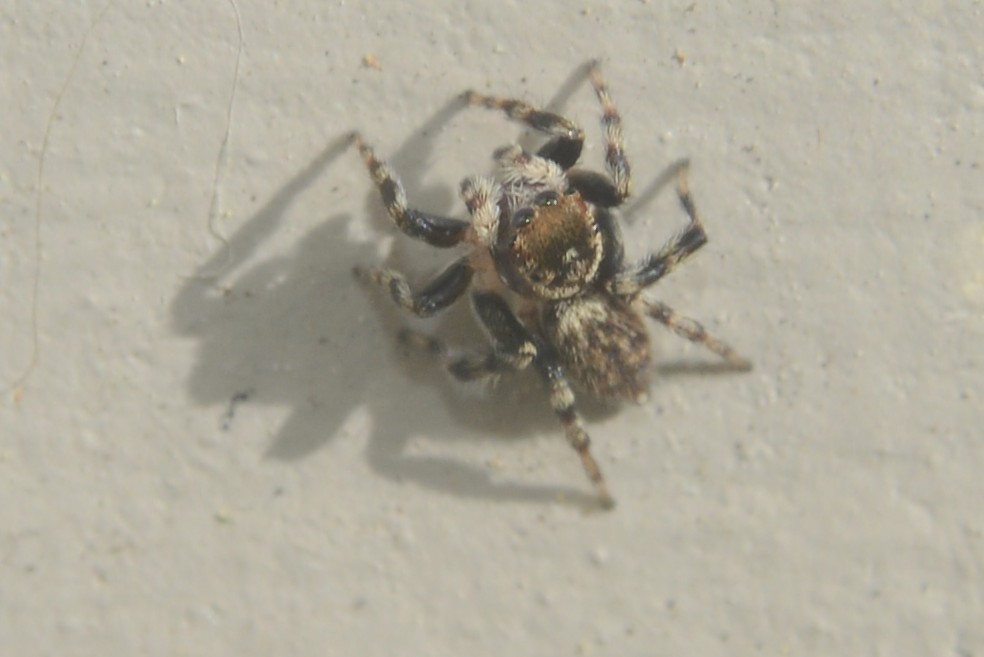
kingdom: Animalia
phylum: Arthropoda
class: Arachnida
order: Araneae
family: Salticidae
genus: Maratus
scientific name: Maratus griseus
